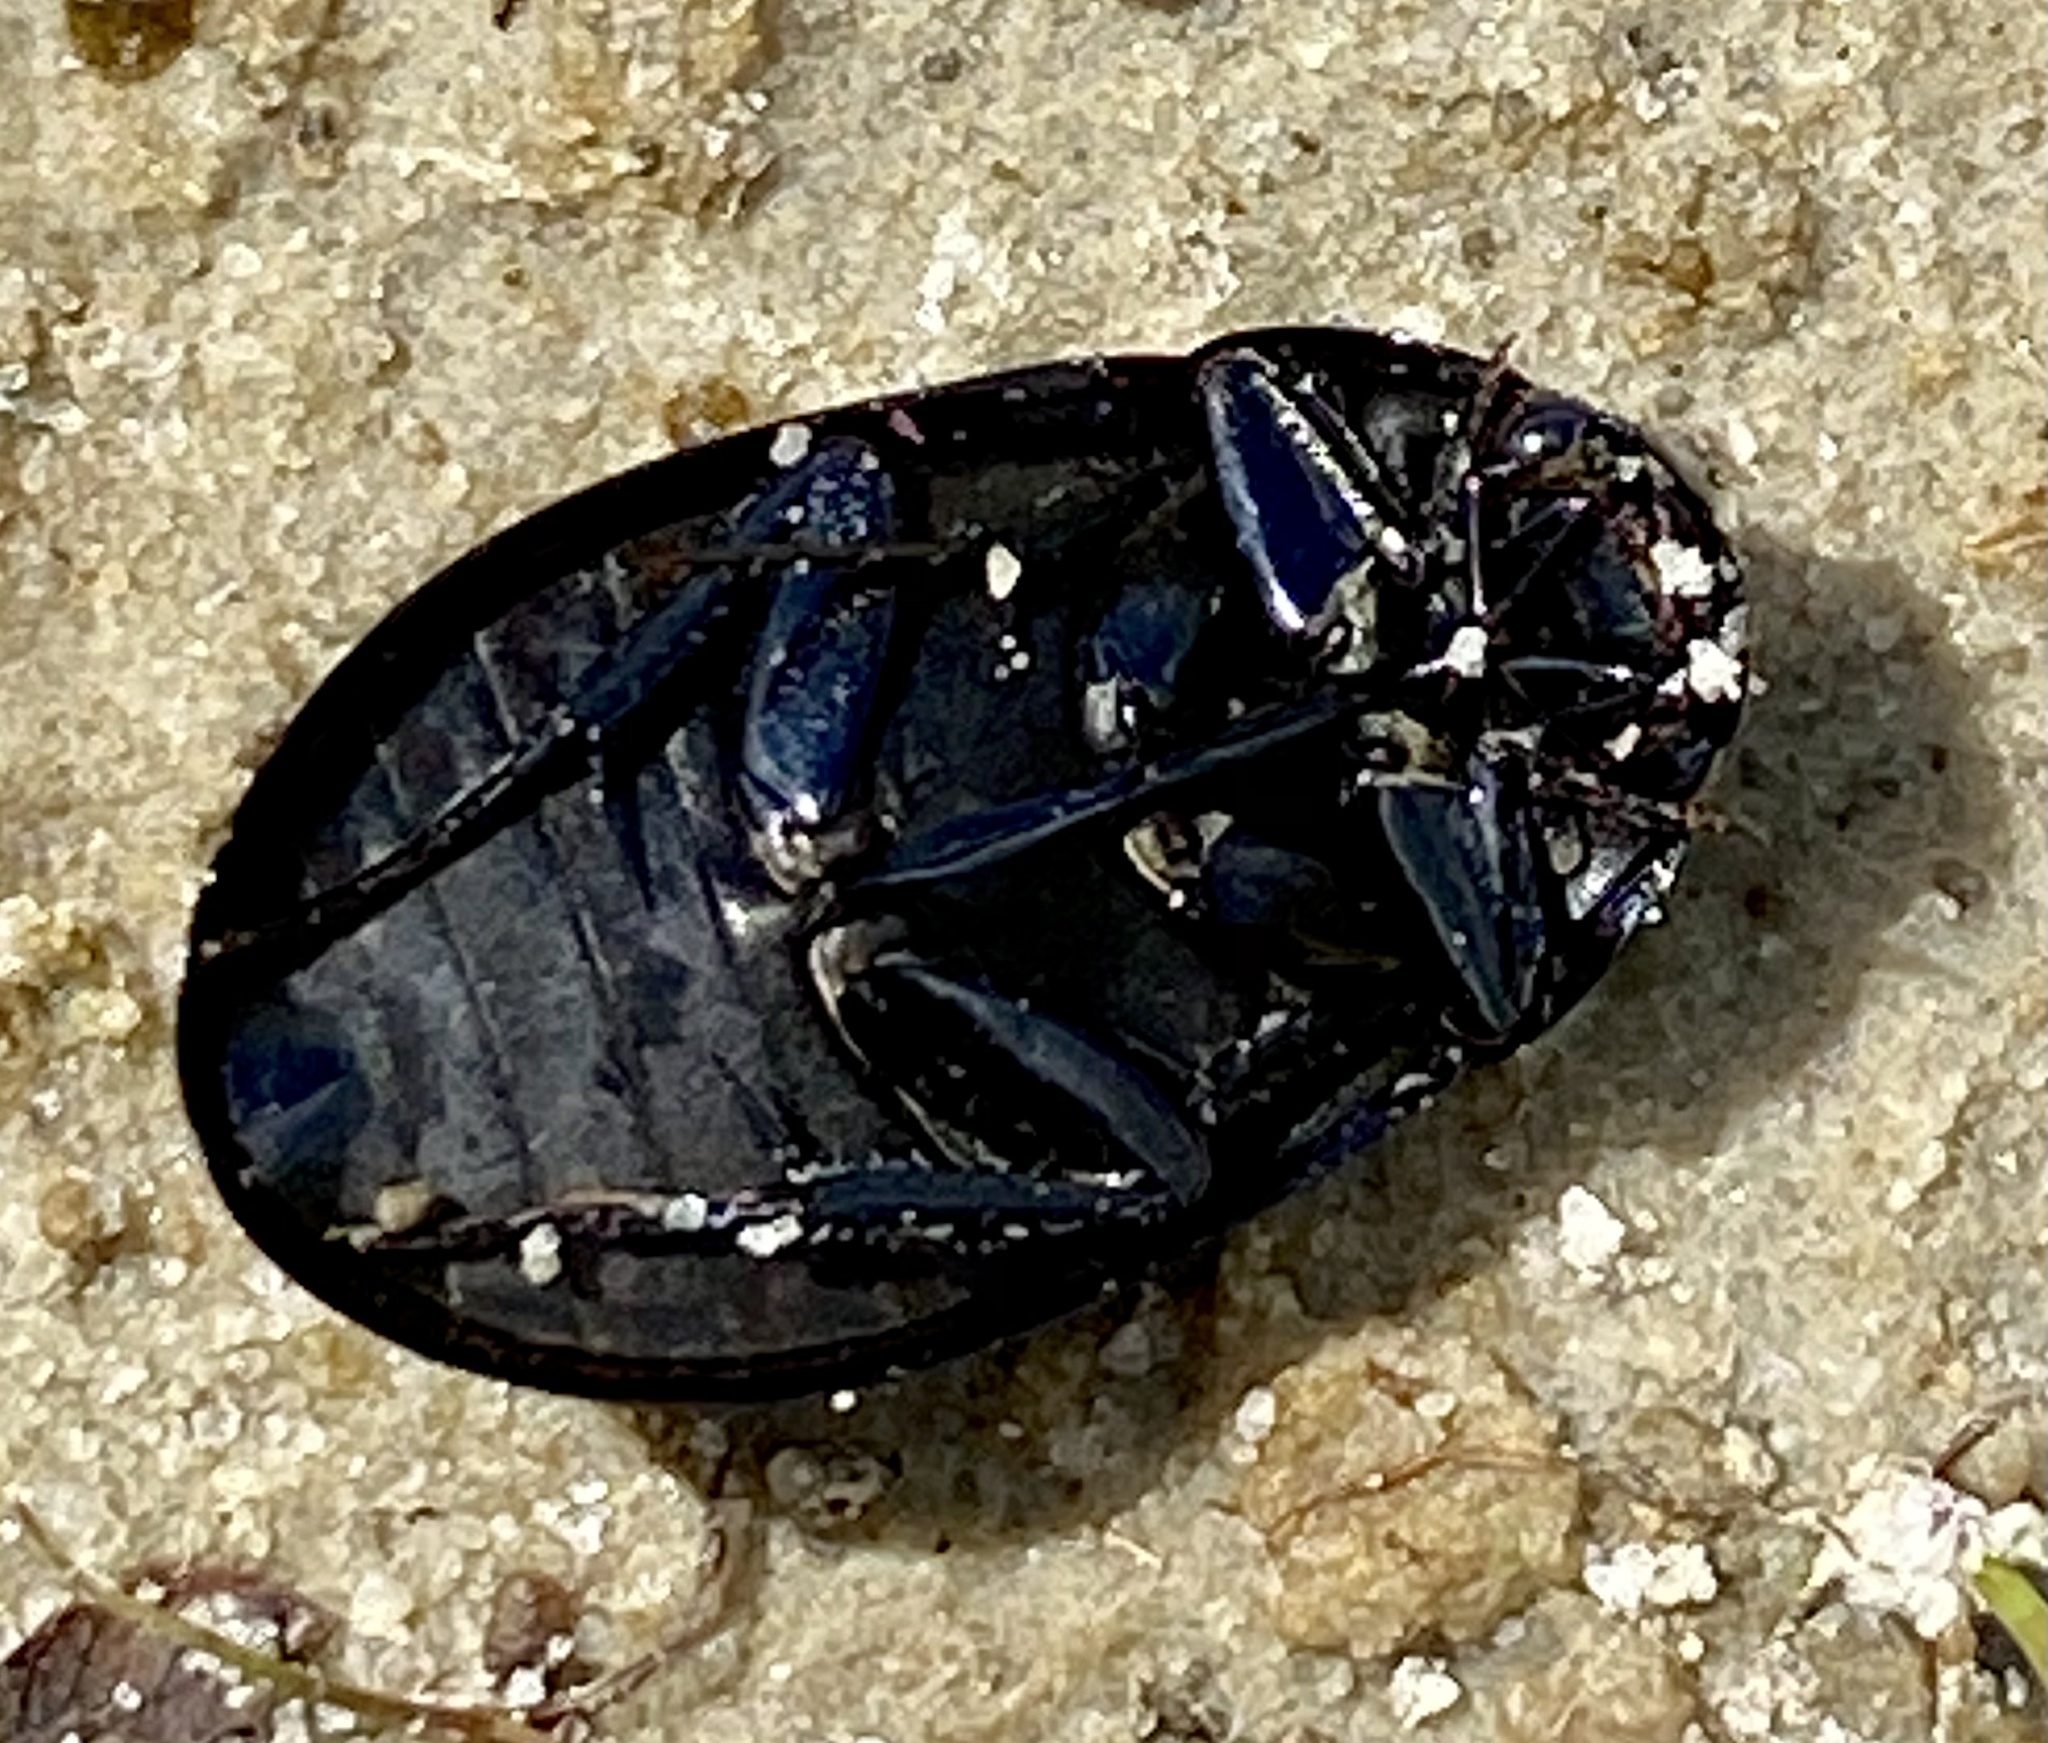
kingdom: Animalia
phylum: Arthropoda
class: Insecta
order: Coleoptera
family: Hydrophilidae
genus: Hydrochara
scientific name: Hydrochara caraboides
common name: Lesser silver water beetle
